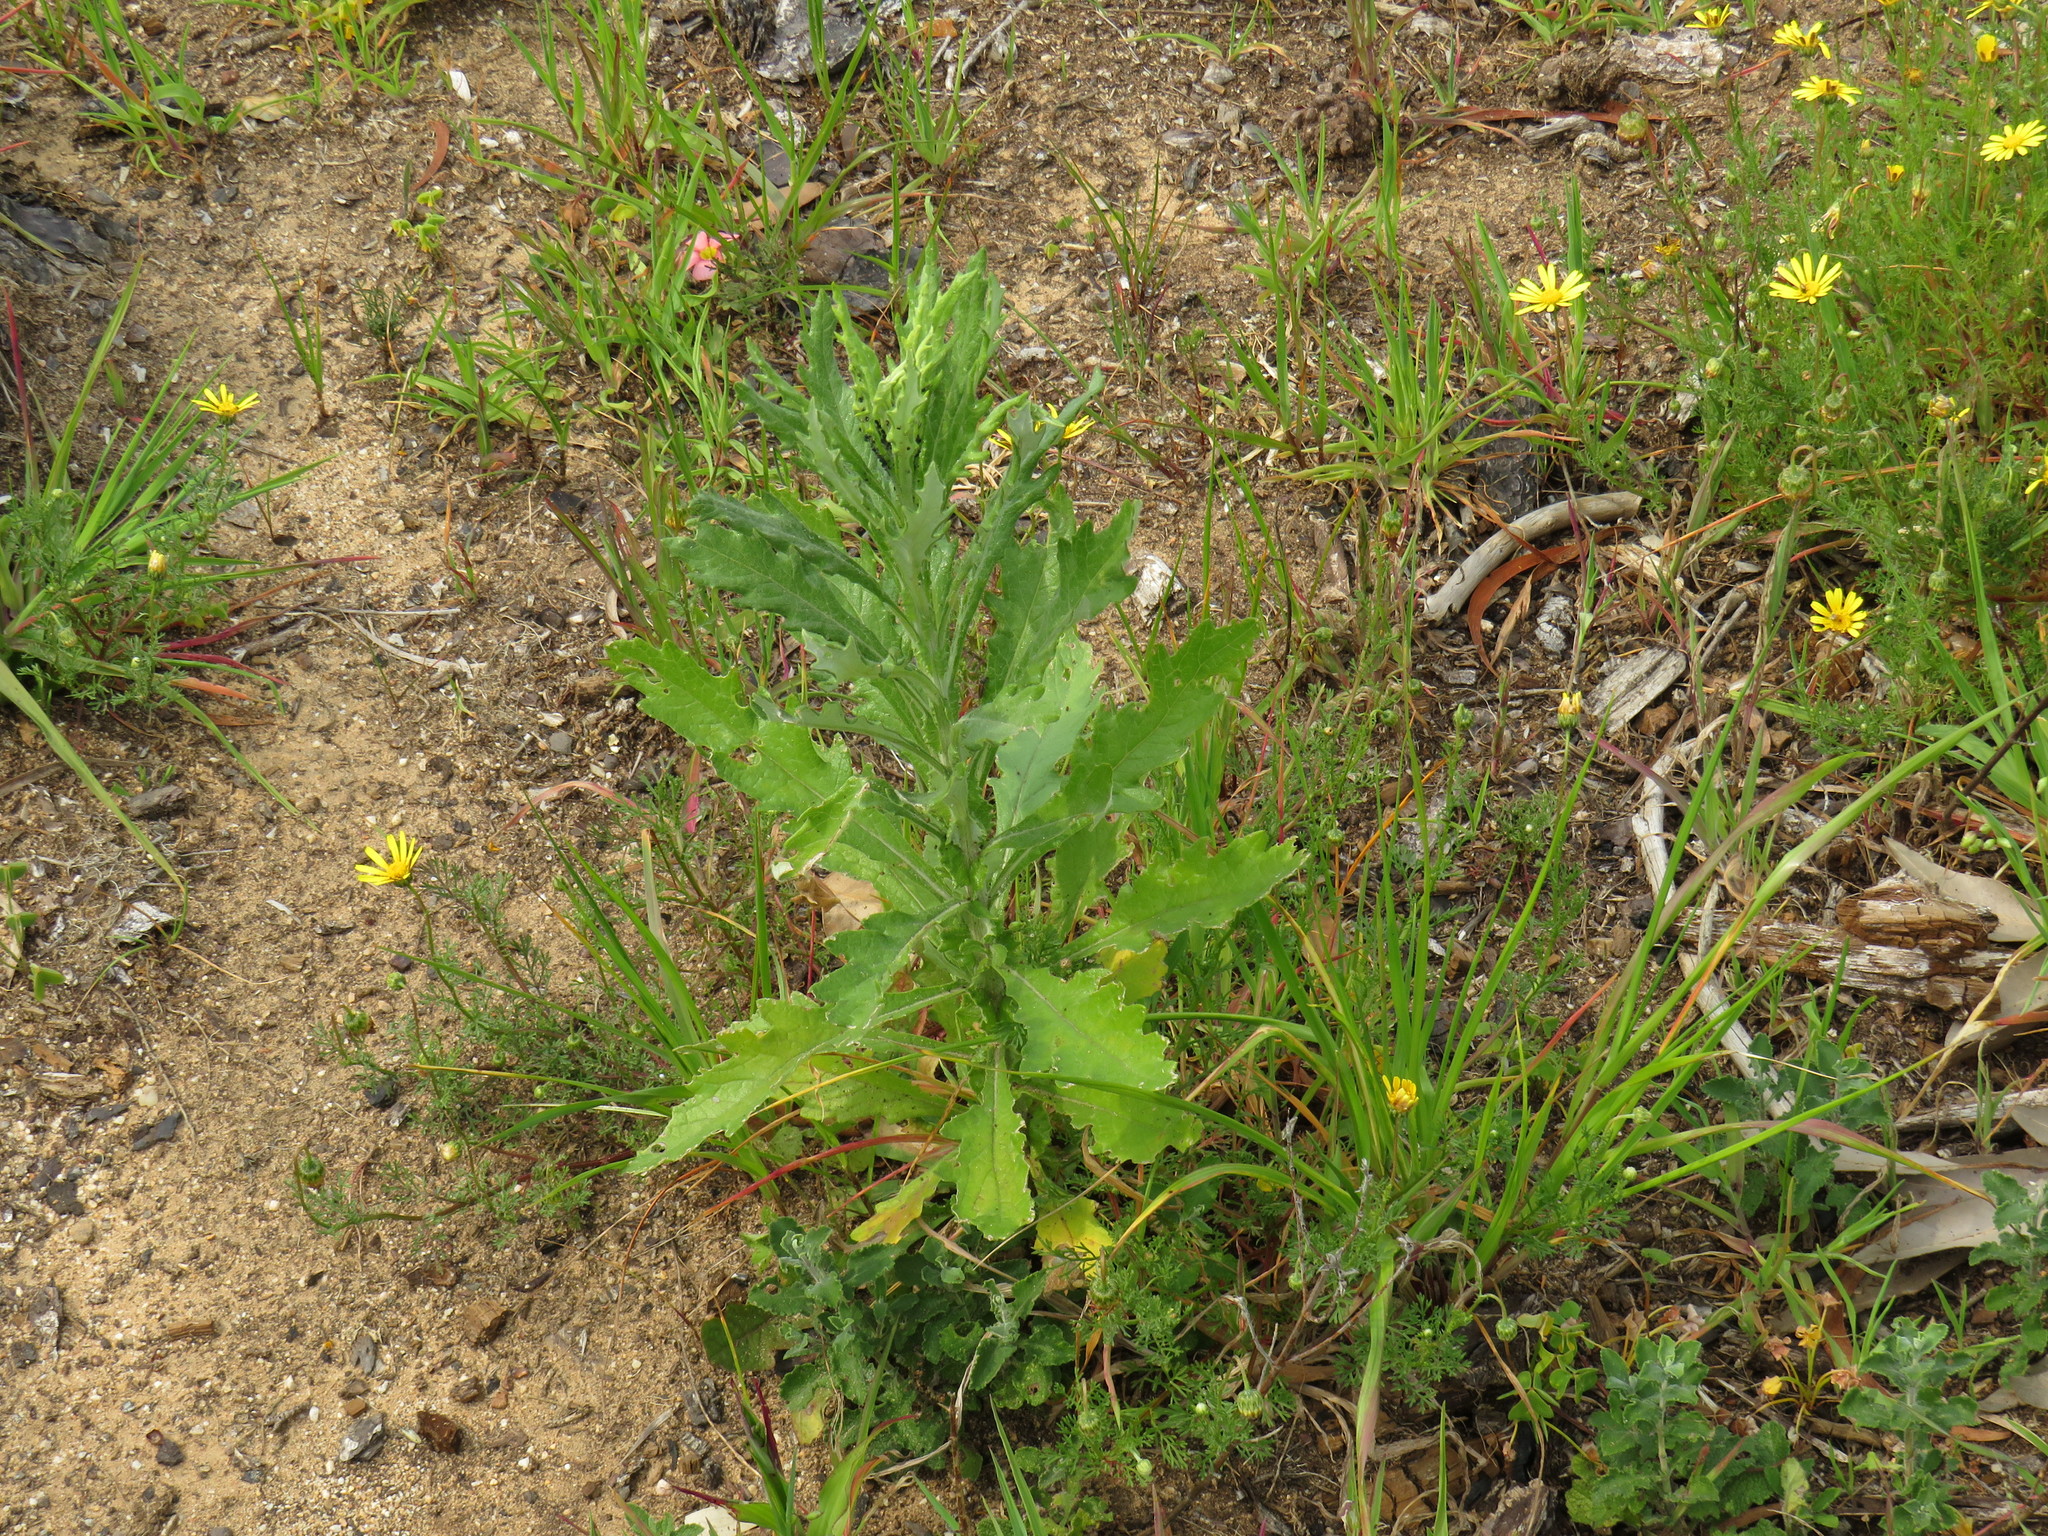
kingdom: Plantae
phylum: Tracheophyta
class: Magnoliopsida
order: Asterales
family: Asteraceae
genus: Senecio
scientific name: Senecio pterophorus
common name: Shoddy ragwort
